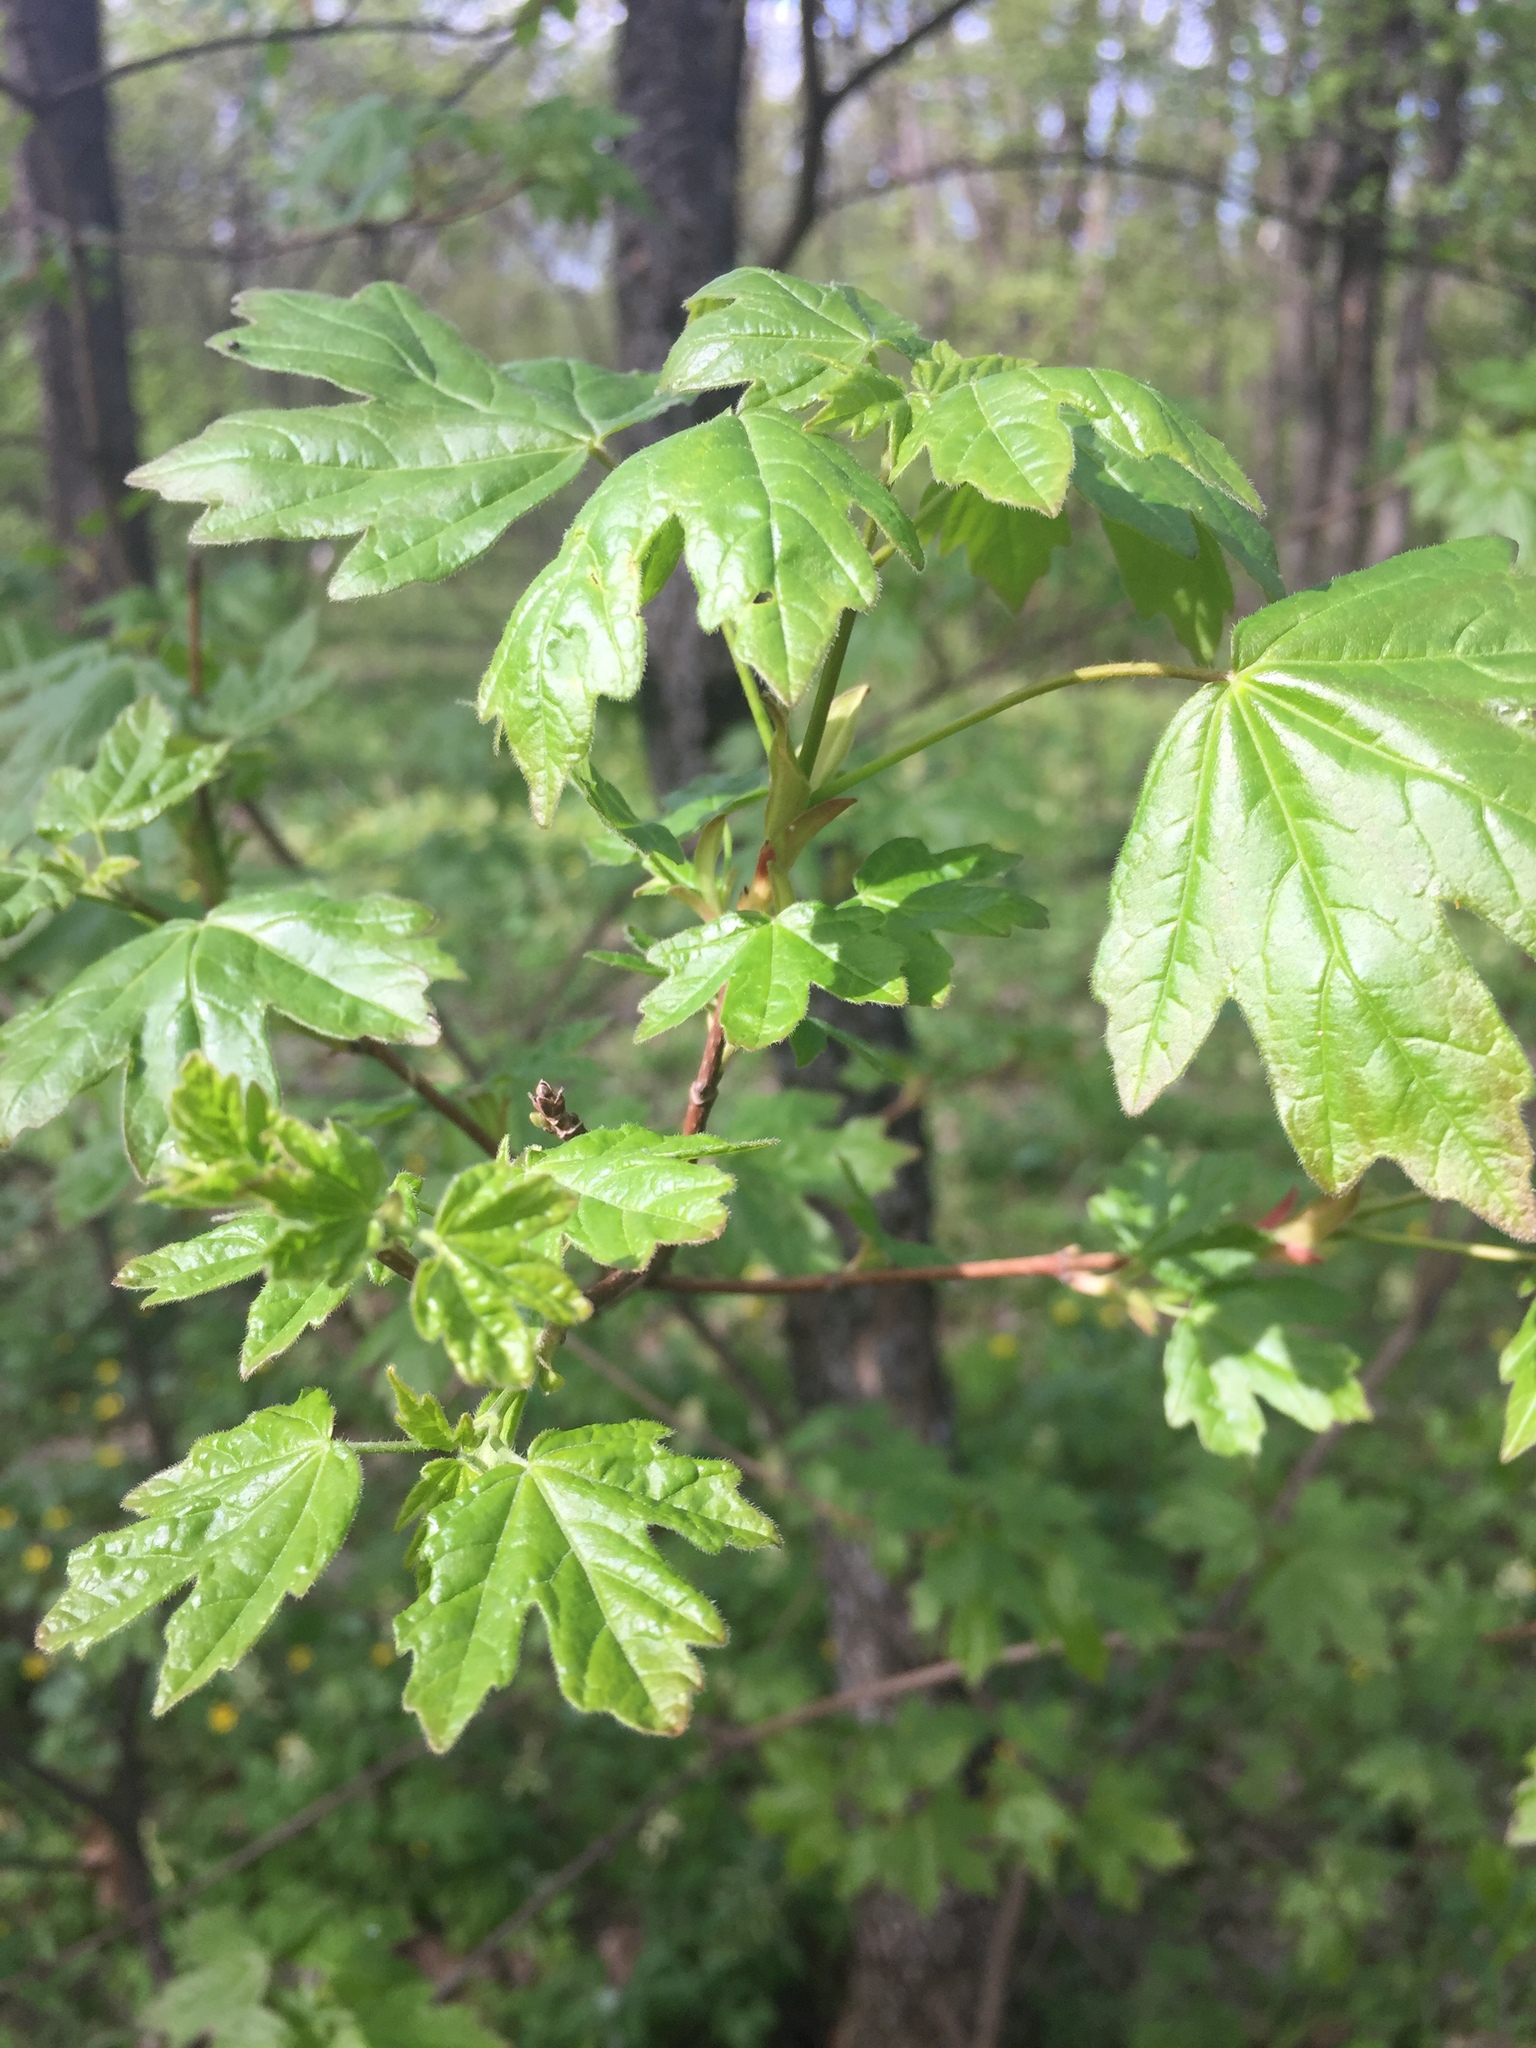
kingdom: Plantae
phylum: Tracheophyta
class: Magnoliopsida
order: Sapindales
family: Sapindaceae
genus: Acer
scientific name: Acer campestre
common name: Field maple
